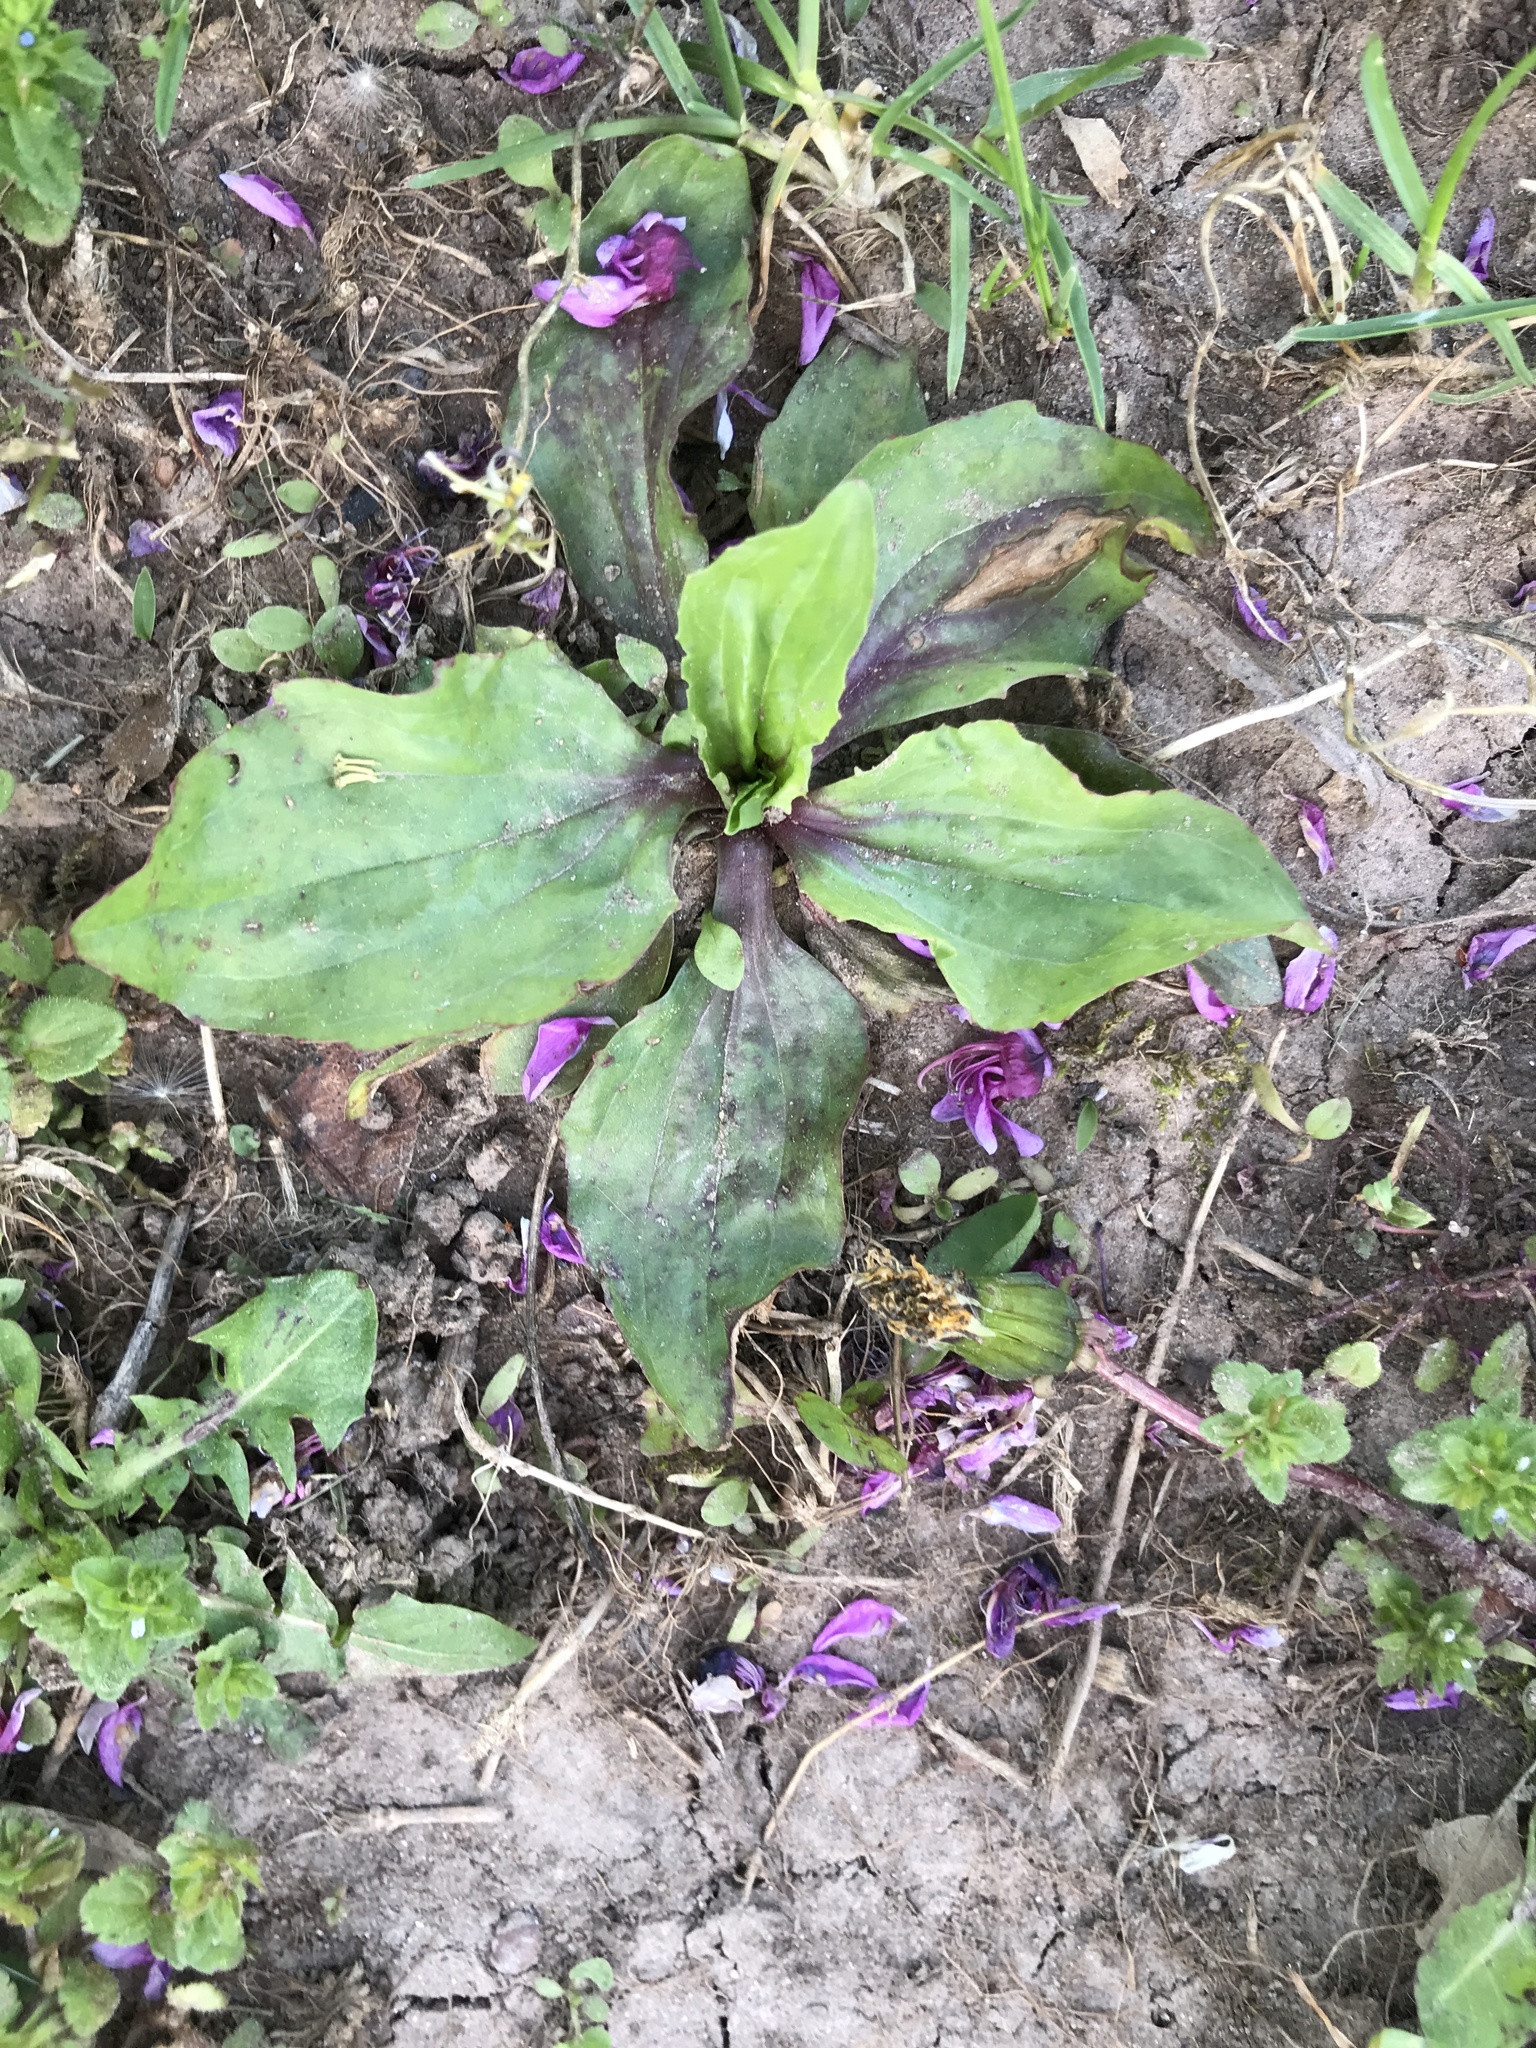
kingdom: Plantae
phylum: Tracheophyta
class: Magnoliopsida
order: Lamiales
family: Plantaginaceae
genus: Plantago
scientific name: Plantago rugelii
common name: American plantain
